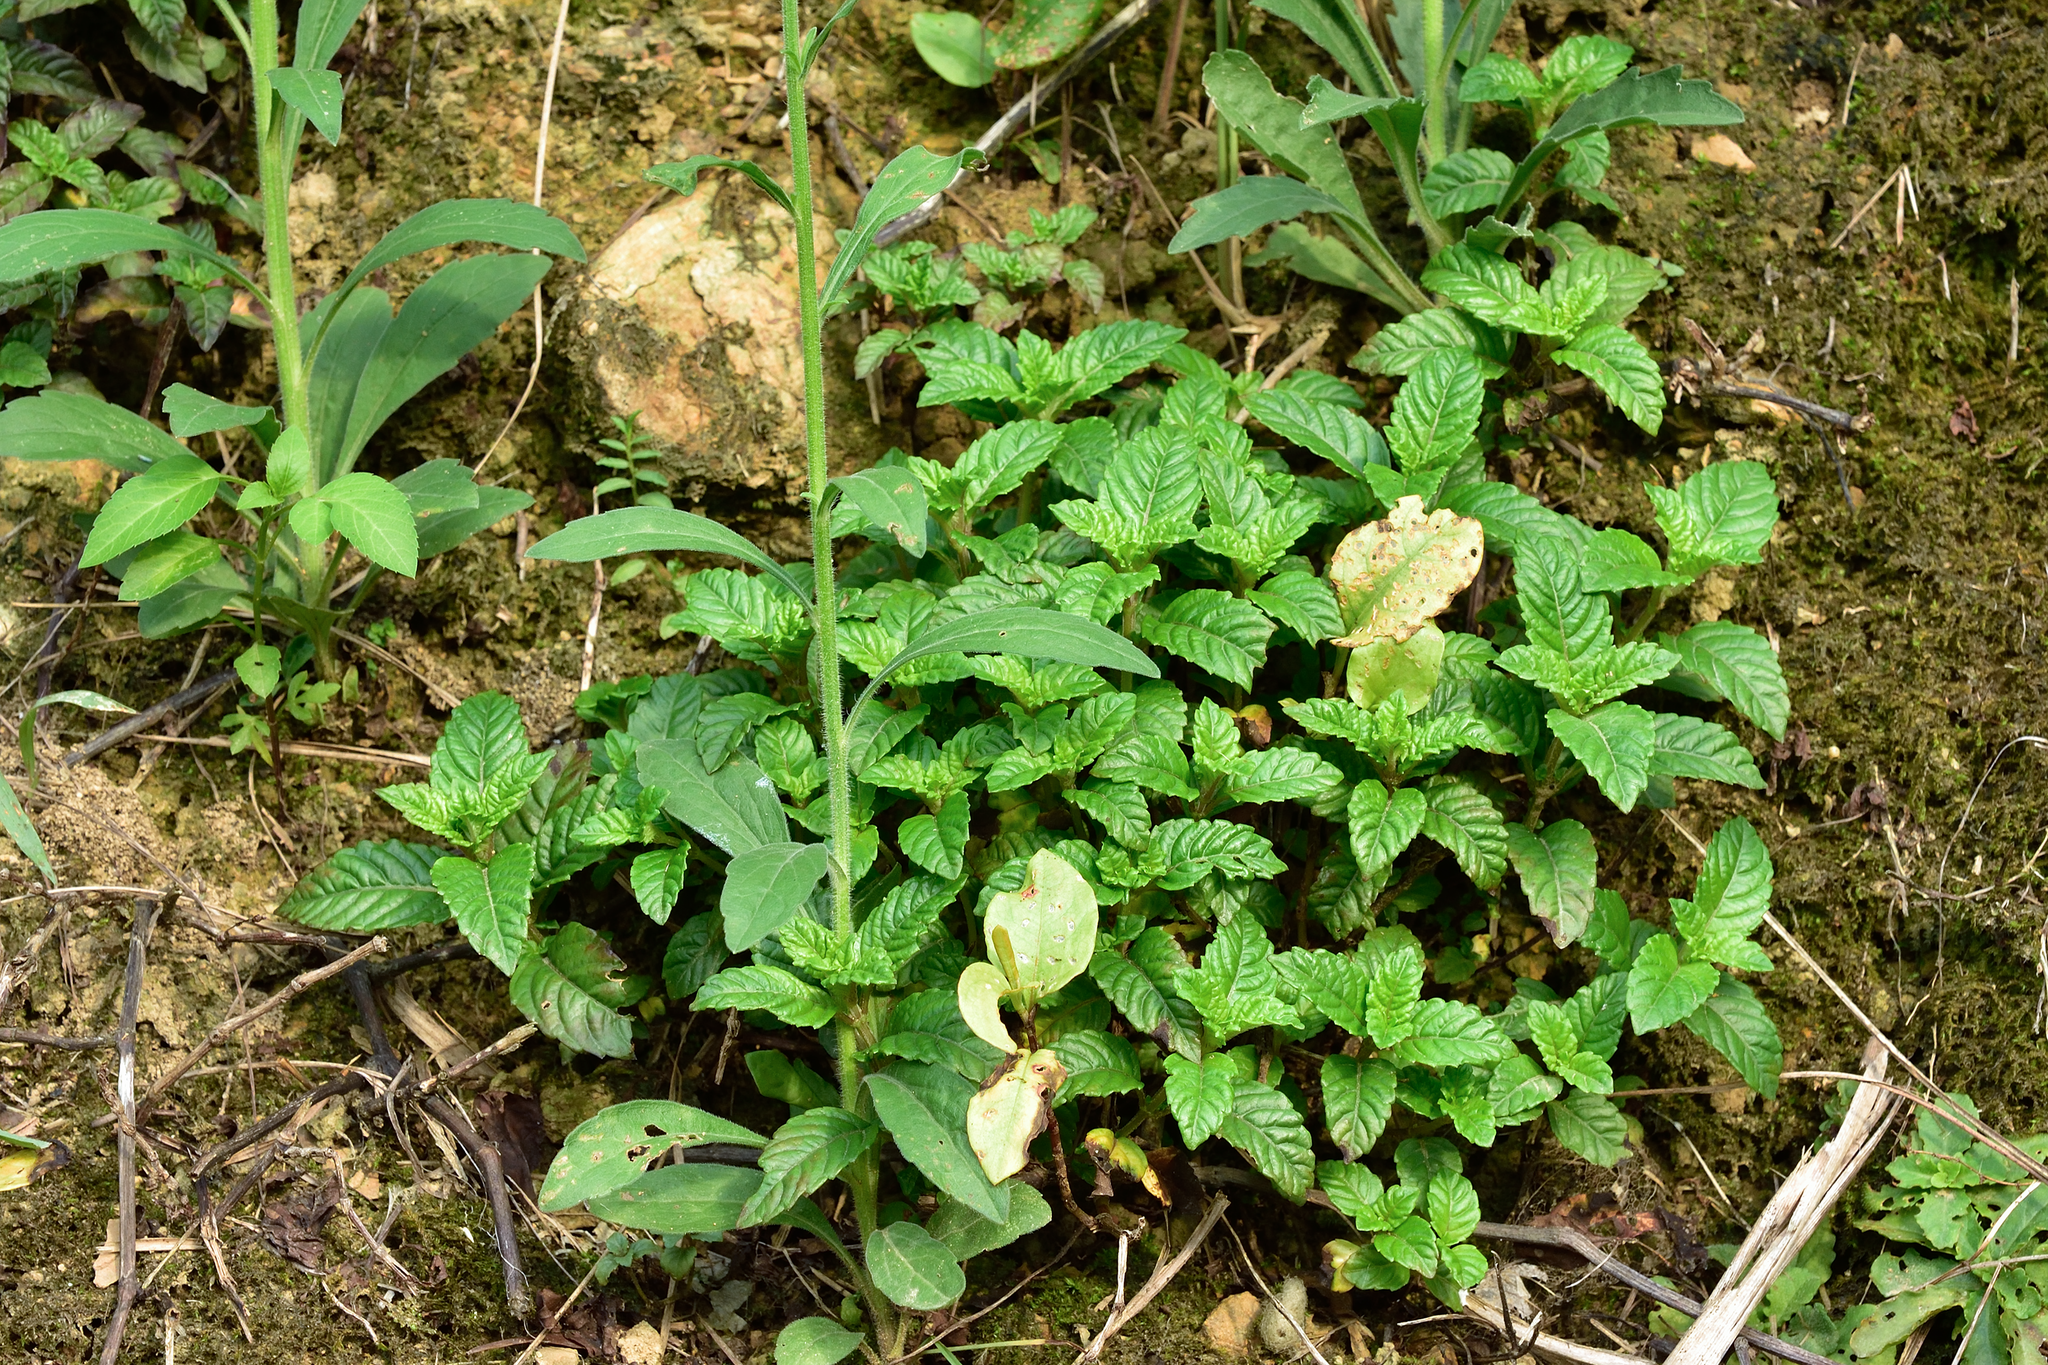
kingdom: Plantae
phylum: Tracheophyta
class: Magnoliopsida
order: Lamiales
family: Lamiaceae
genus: Platostoma
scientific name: Platostoma palustre
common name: Black cincau
